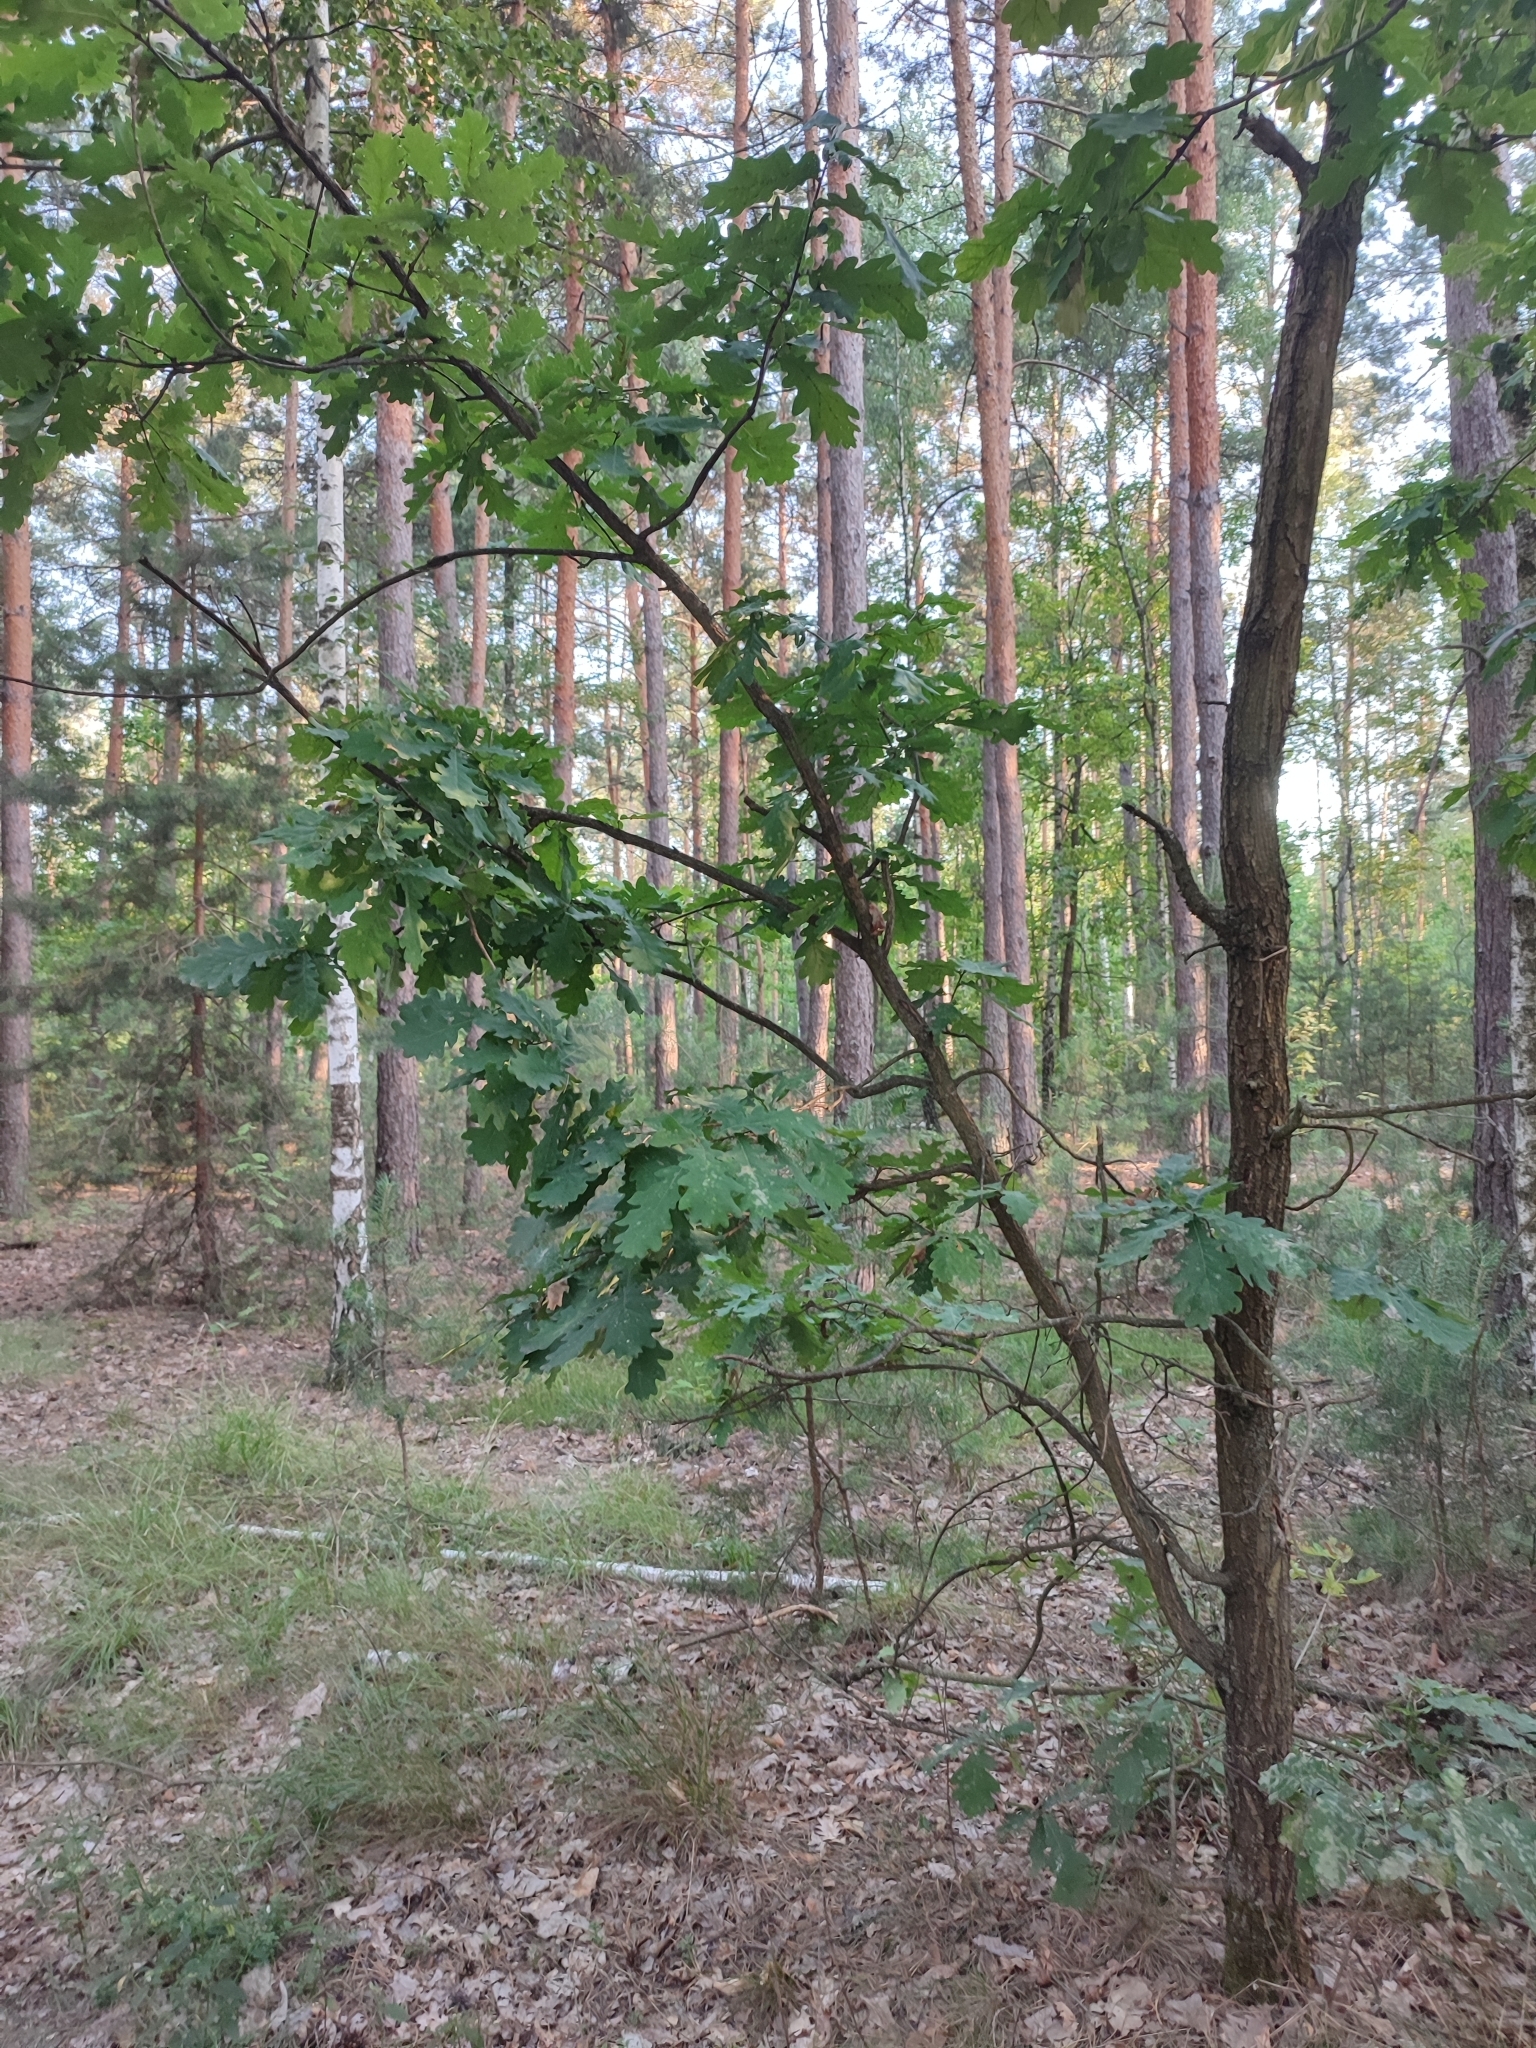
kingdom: Plantae
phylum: Tracheophyta
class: Magnoliopsida
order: Fagales
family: Fagaceae
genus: Quercus
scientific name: Quercus robur
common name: Pedunculate oak
